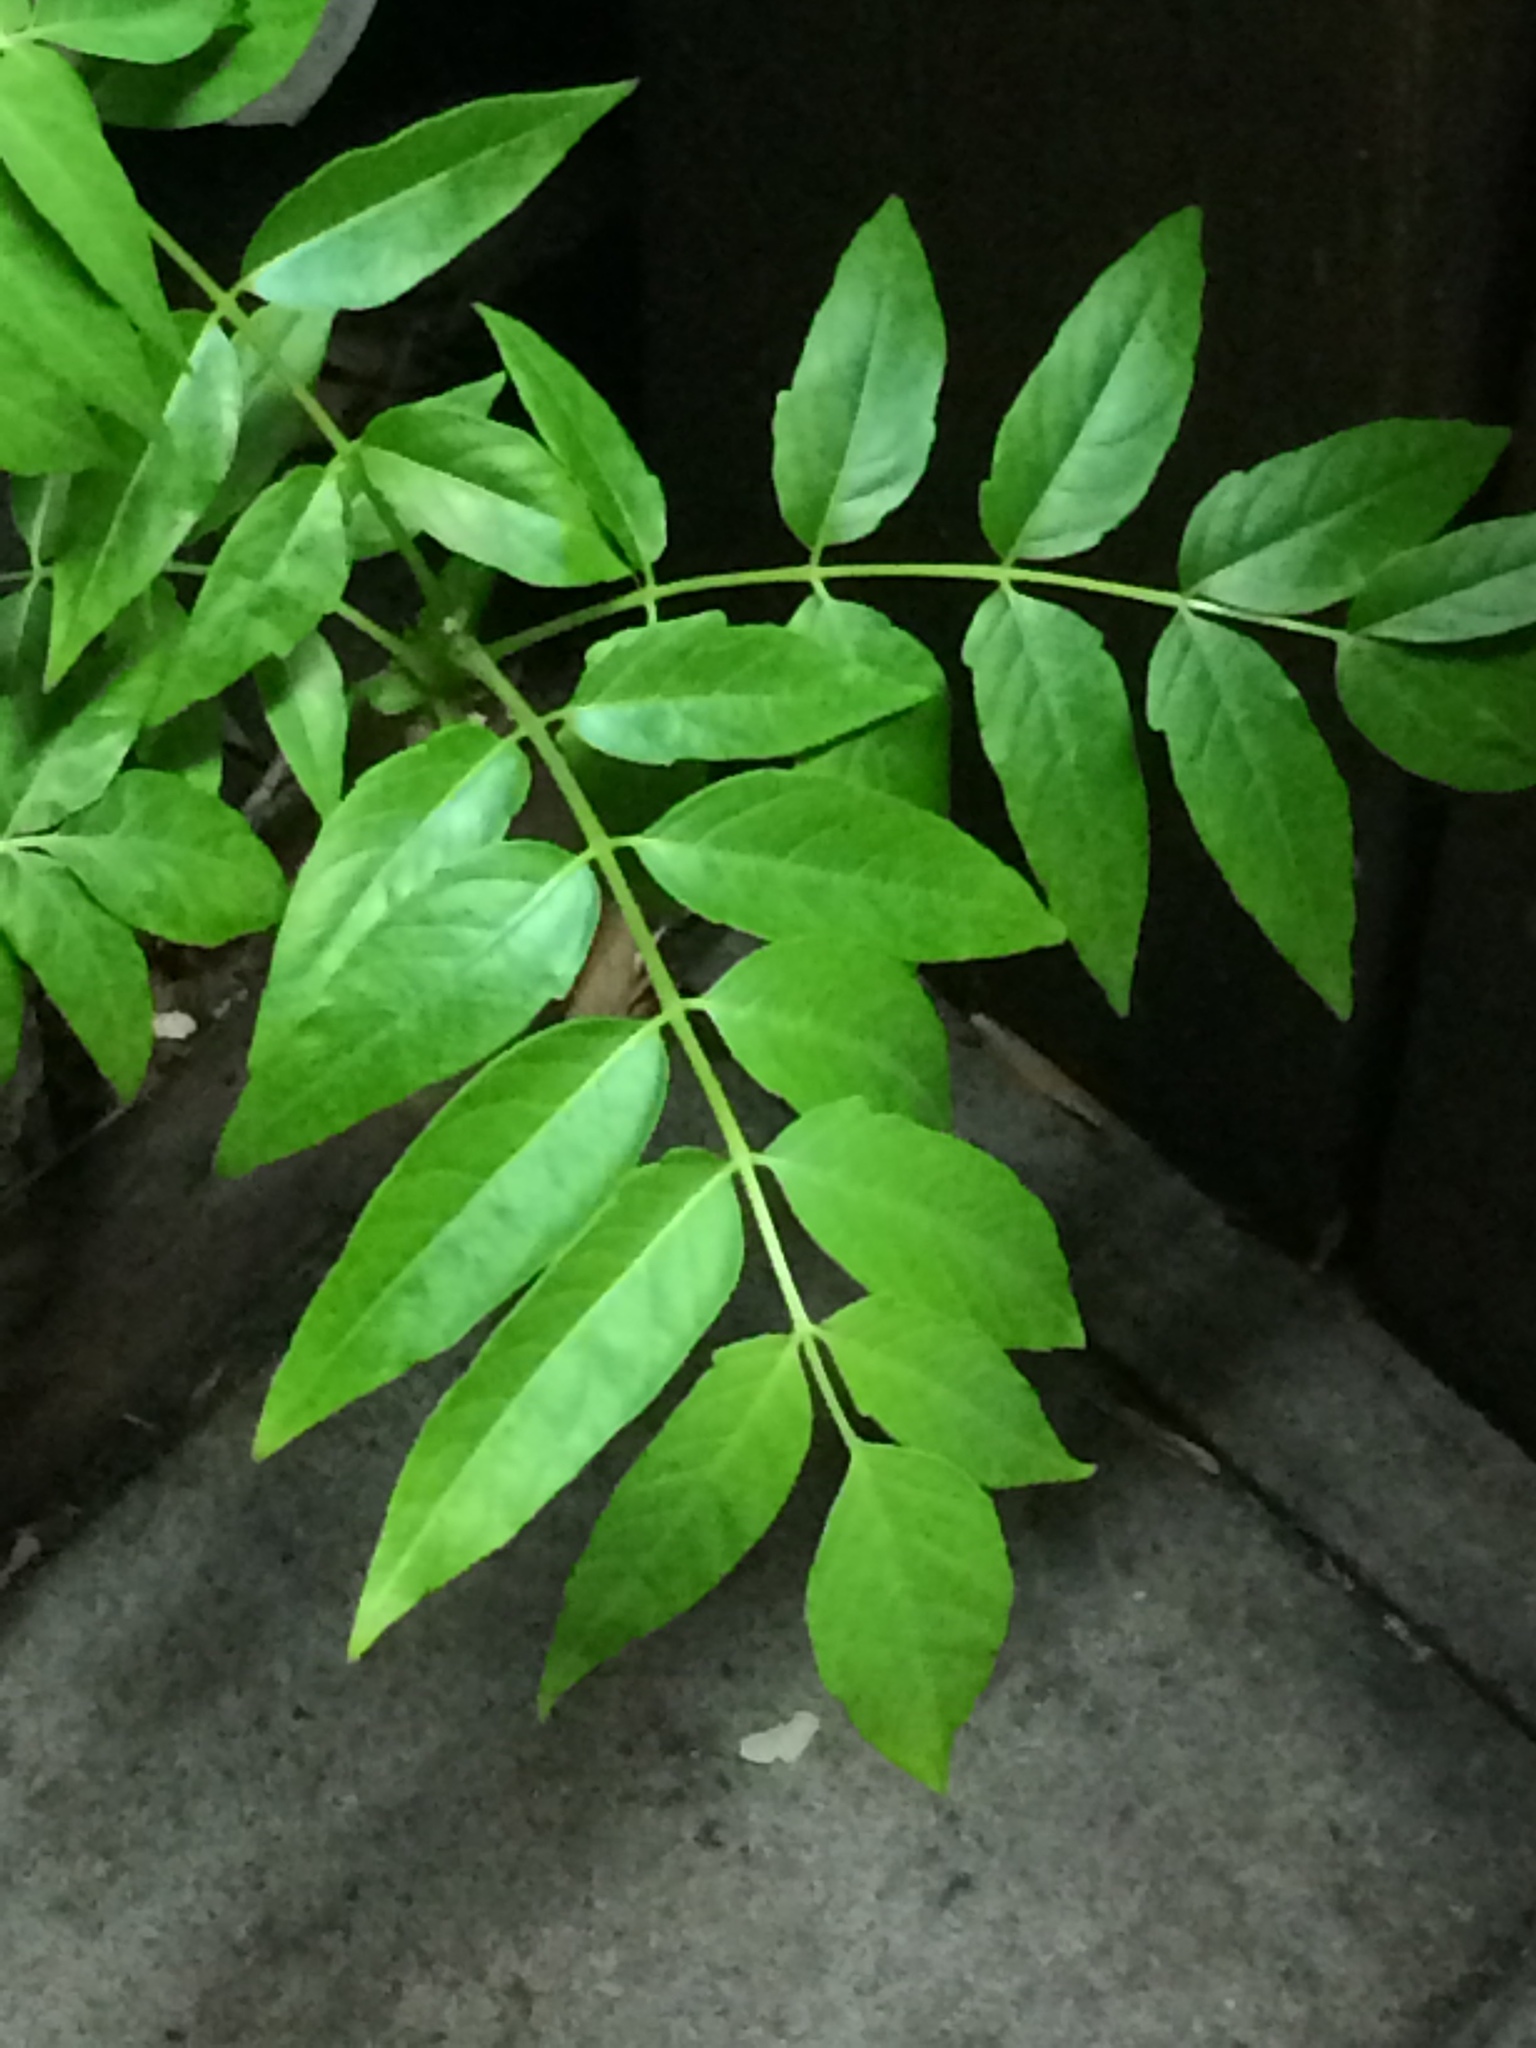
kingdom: Plantae
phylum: Tracheophyta
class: Magnoliopsida
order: Sapindales
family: Simaroubaceae
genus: Ailanthus
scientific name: Ailanthus altissima
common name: Tree-of-heaven
